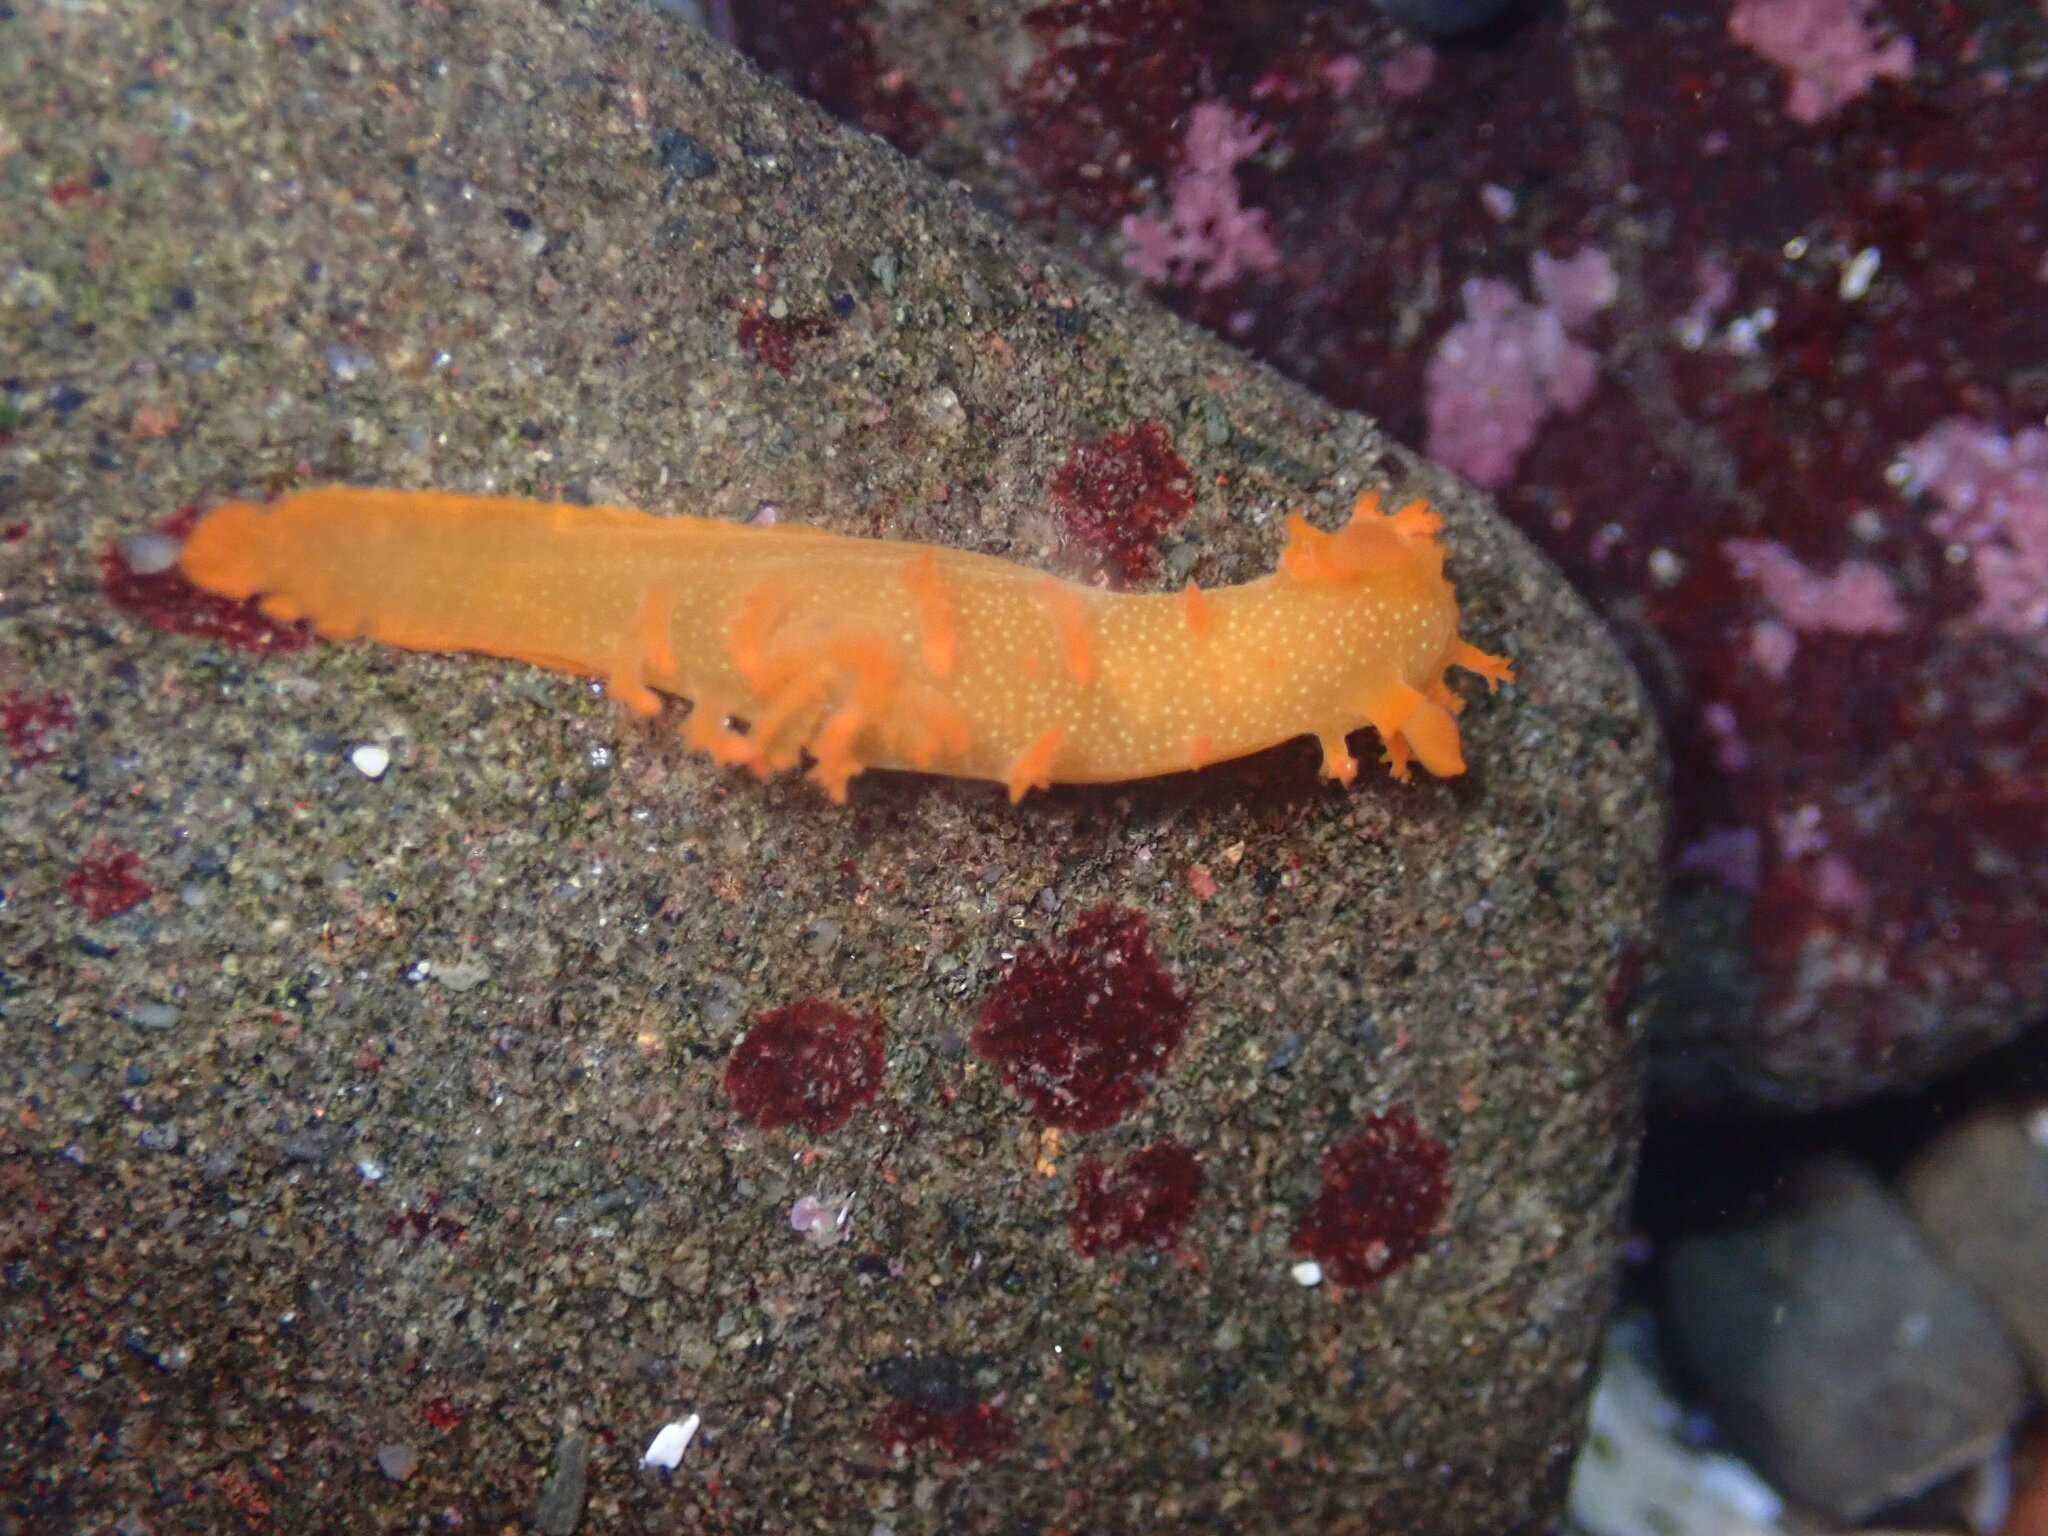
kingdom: Animalia
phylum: Mollusca
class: Gastropoda
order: Nudibranchia
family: Polyceridae
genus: Triopha
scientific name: Triopha maculata
